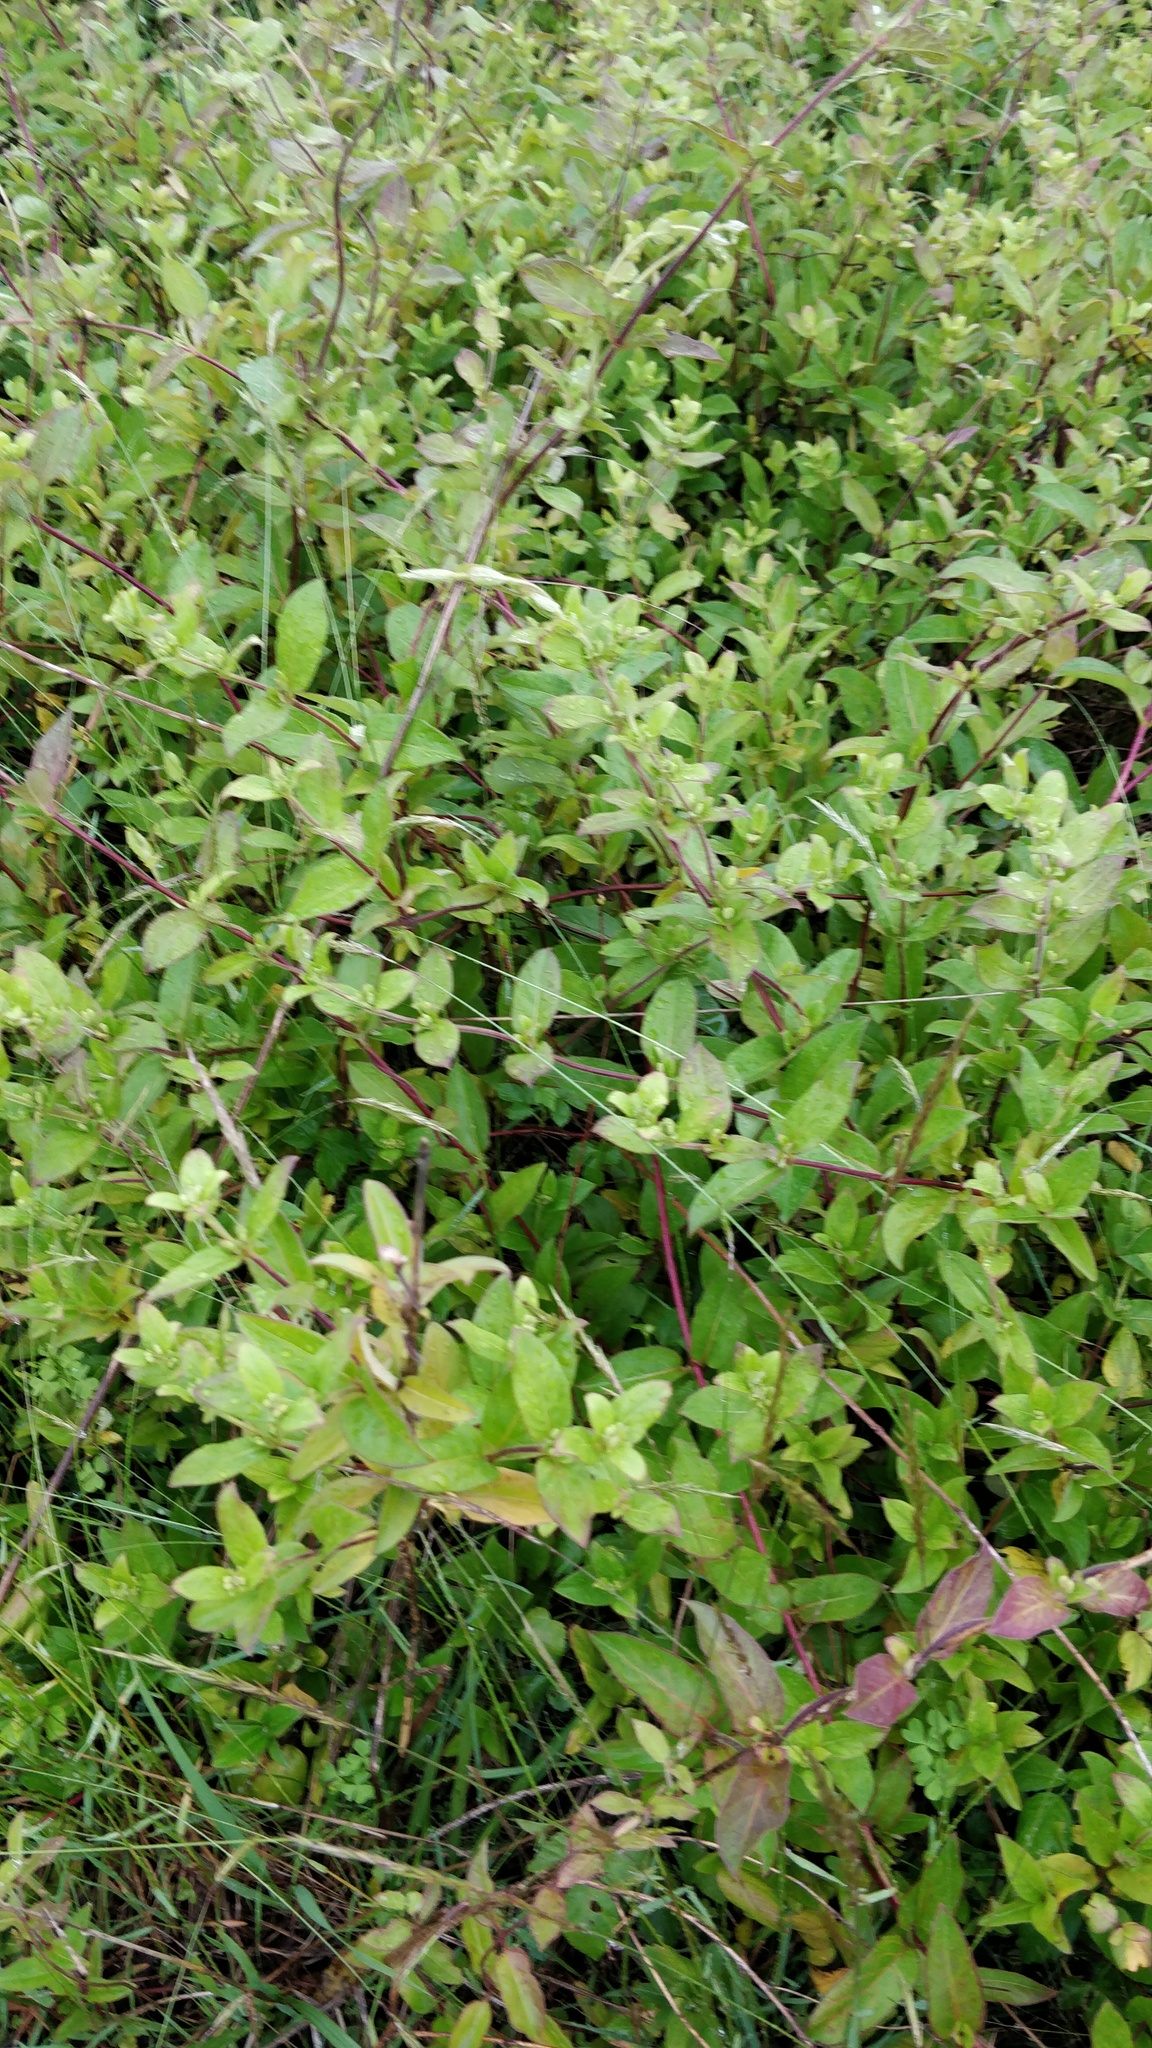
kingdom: Plantae
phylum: Tracheophyta
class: Magnoliopsida
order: Dipsacales
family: Caprifoliaceae
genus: Lonicera
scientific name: Lonicera japonica
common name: Japanese honeysuckle
